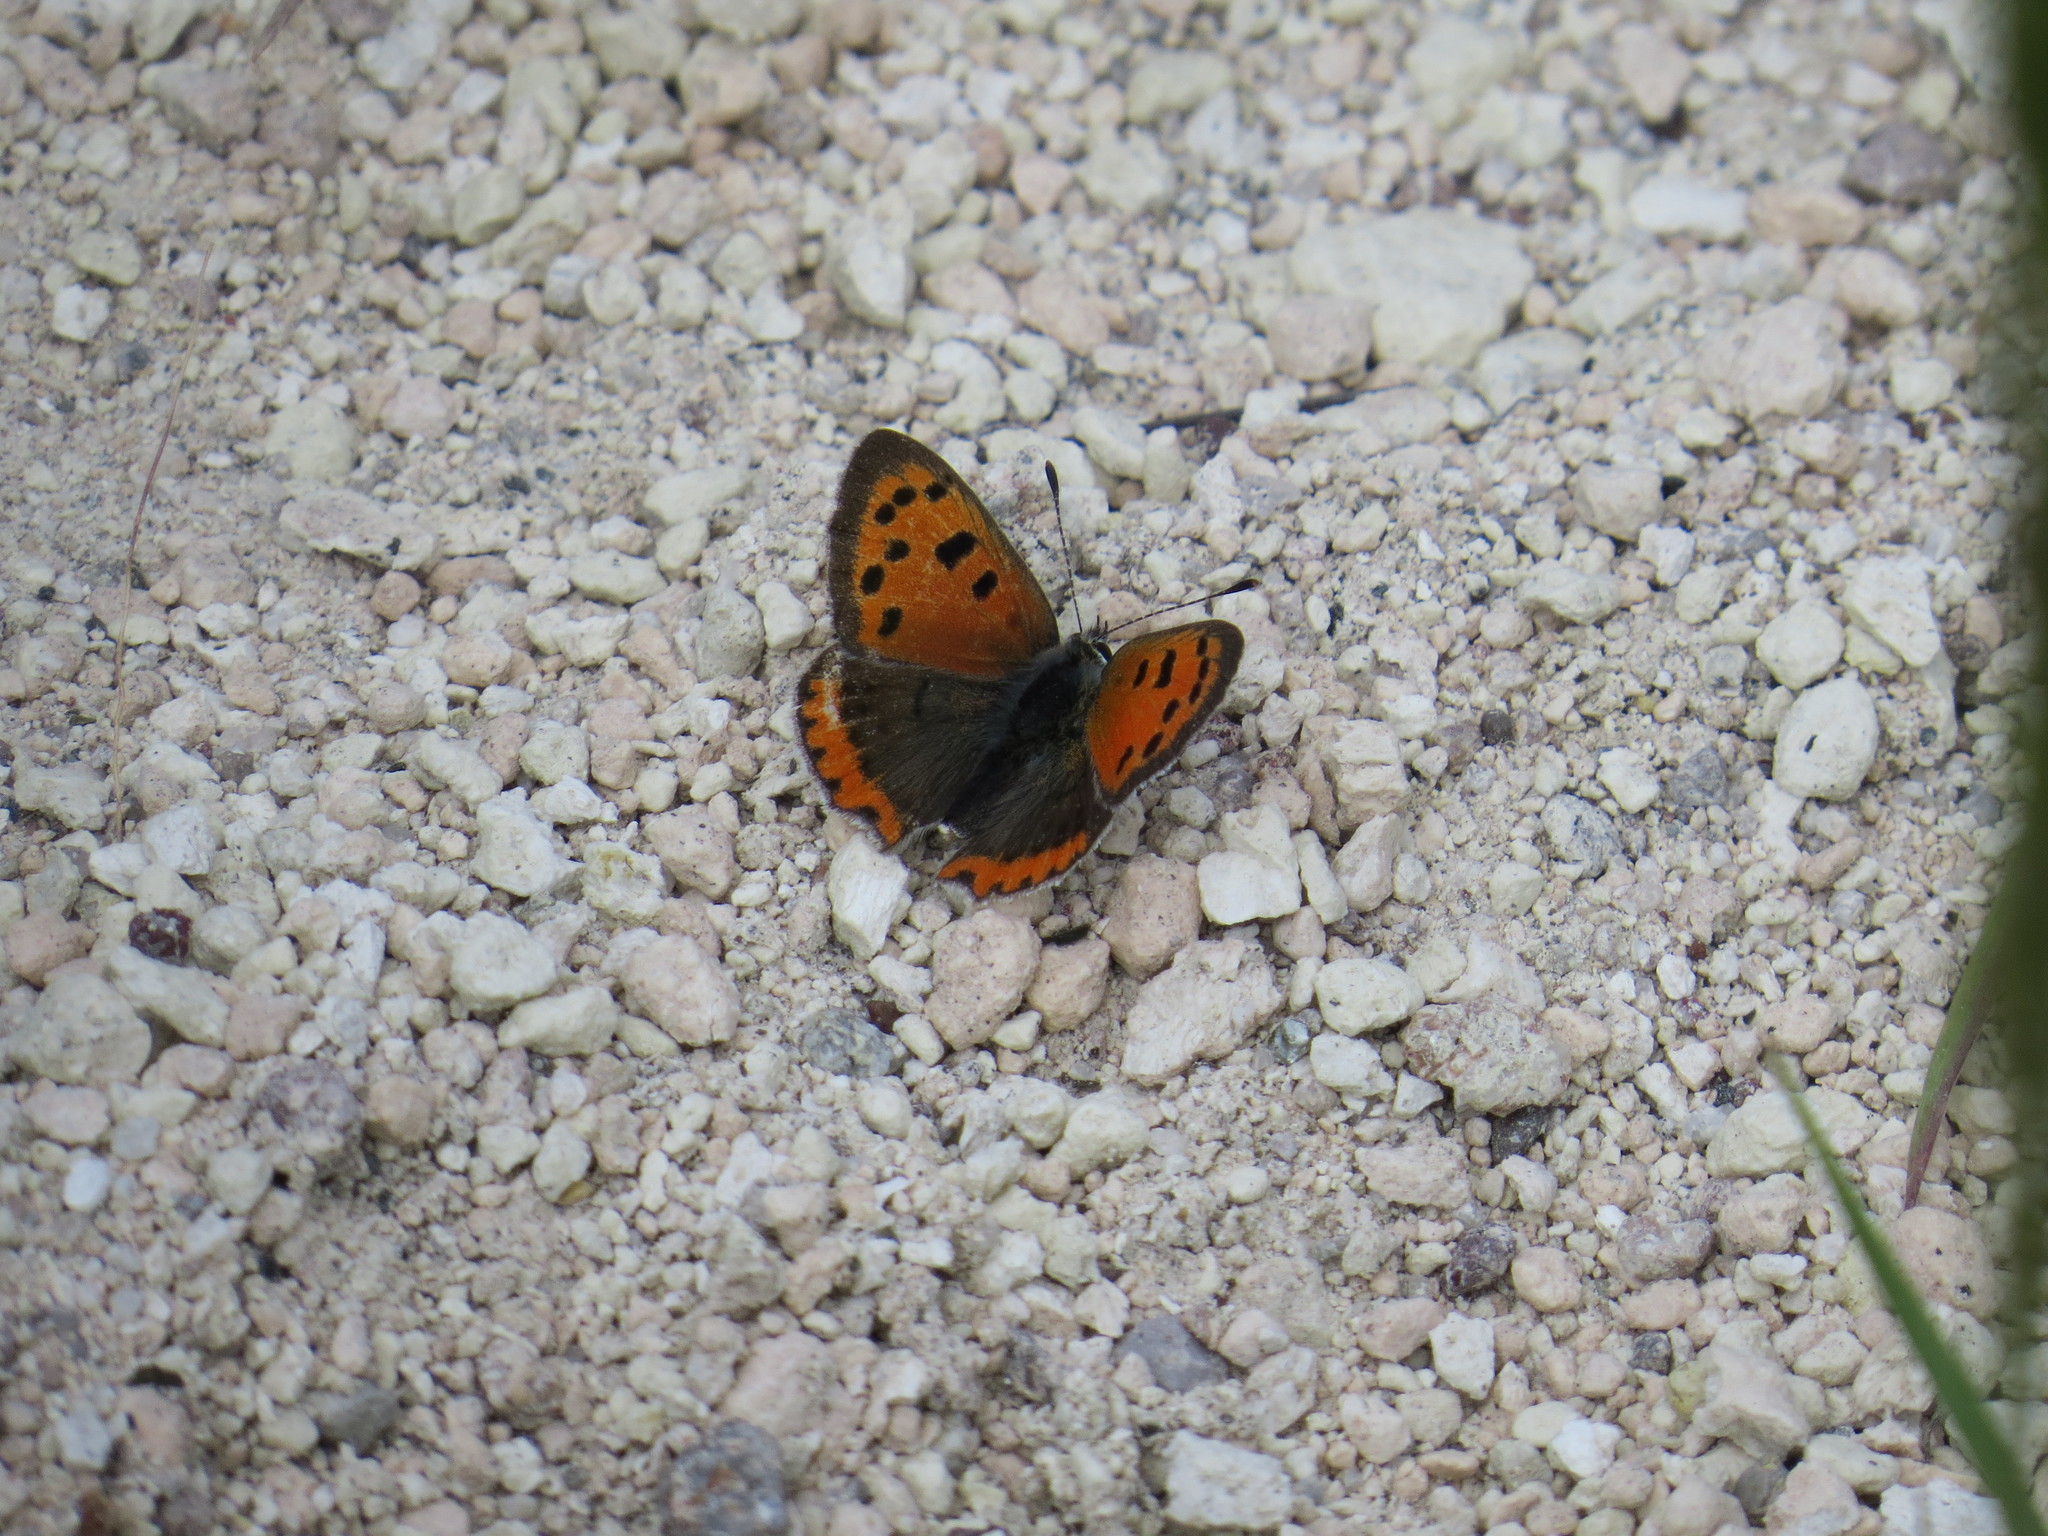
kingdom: Animalia
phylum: Arthropoda
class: Insecta
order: Lepidoptera
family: Lycaenidae
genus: Lycaena
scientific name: Lycaena phlaeas
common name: Small copper
